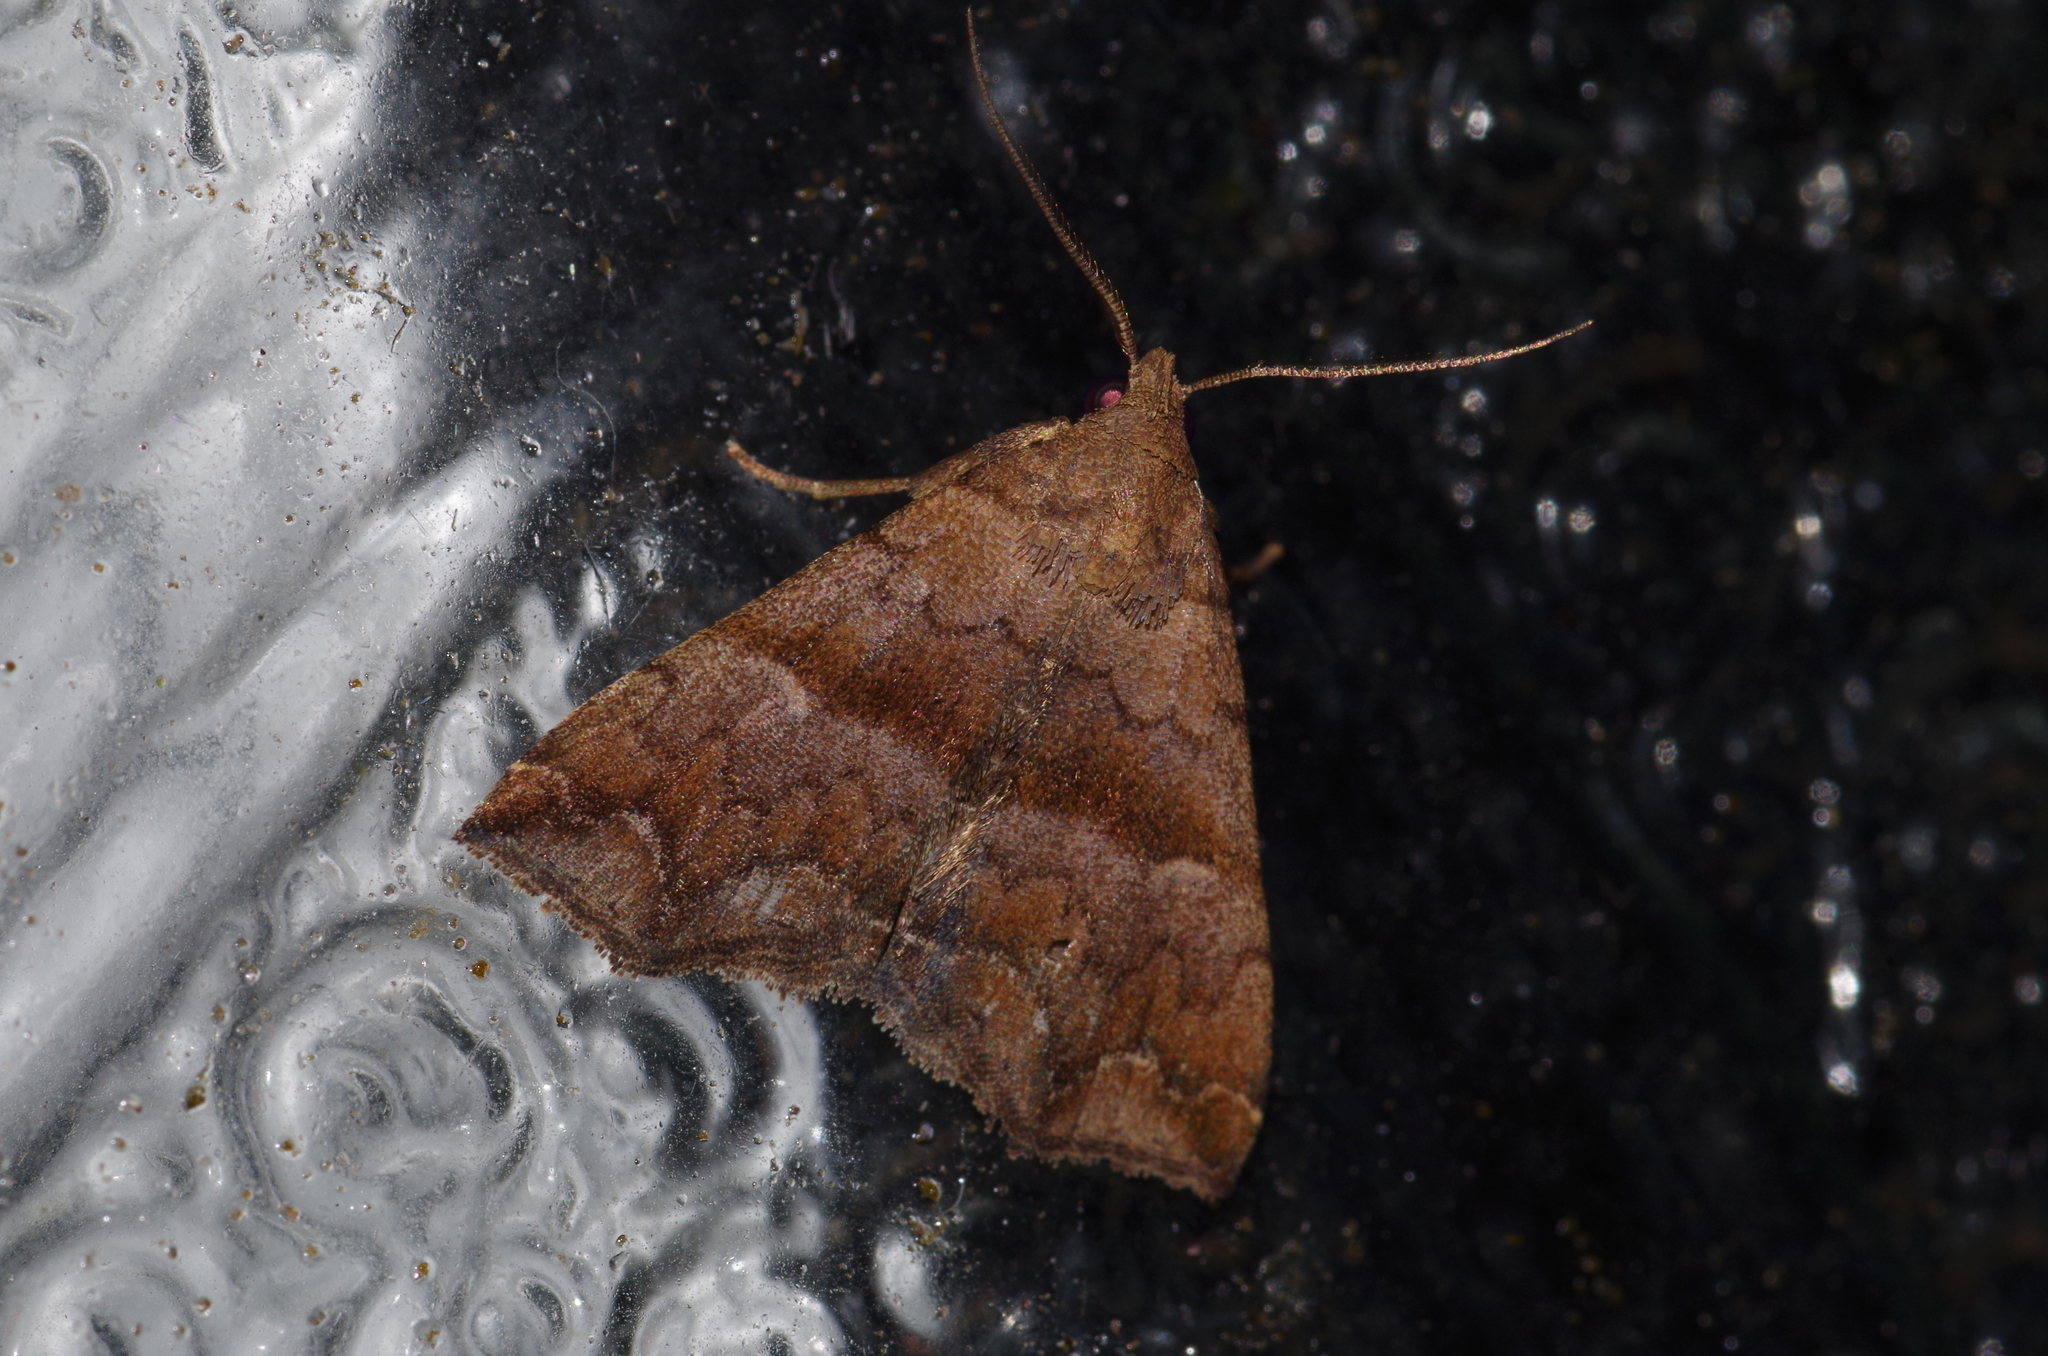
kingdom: Animalia
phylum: Arthropoda
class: Insecta
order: Lepidoptera
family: Erebidae
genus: Polypogon
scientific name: Polypogon Hipoepa fractalis
